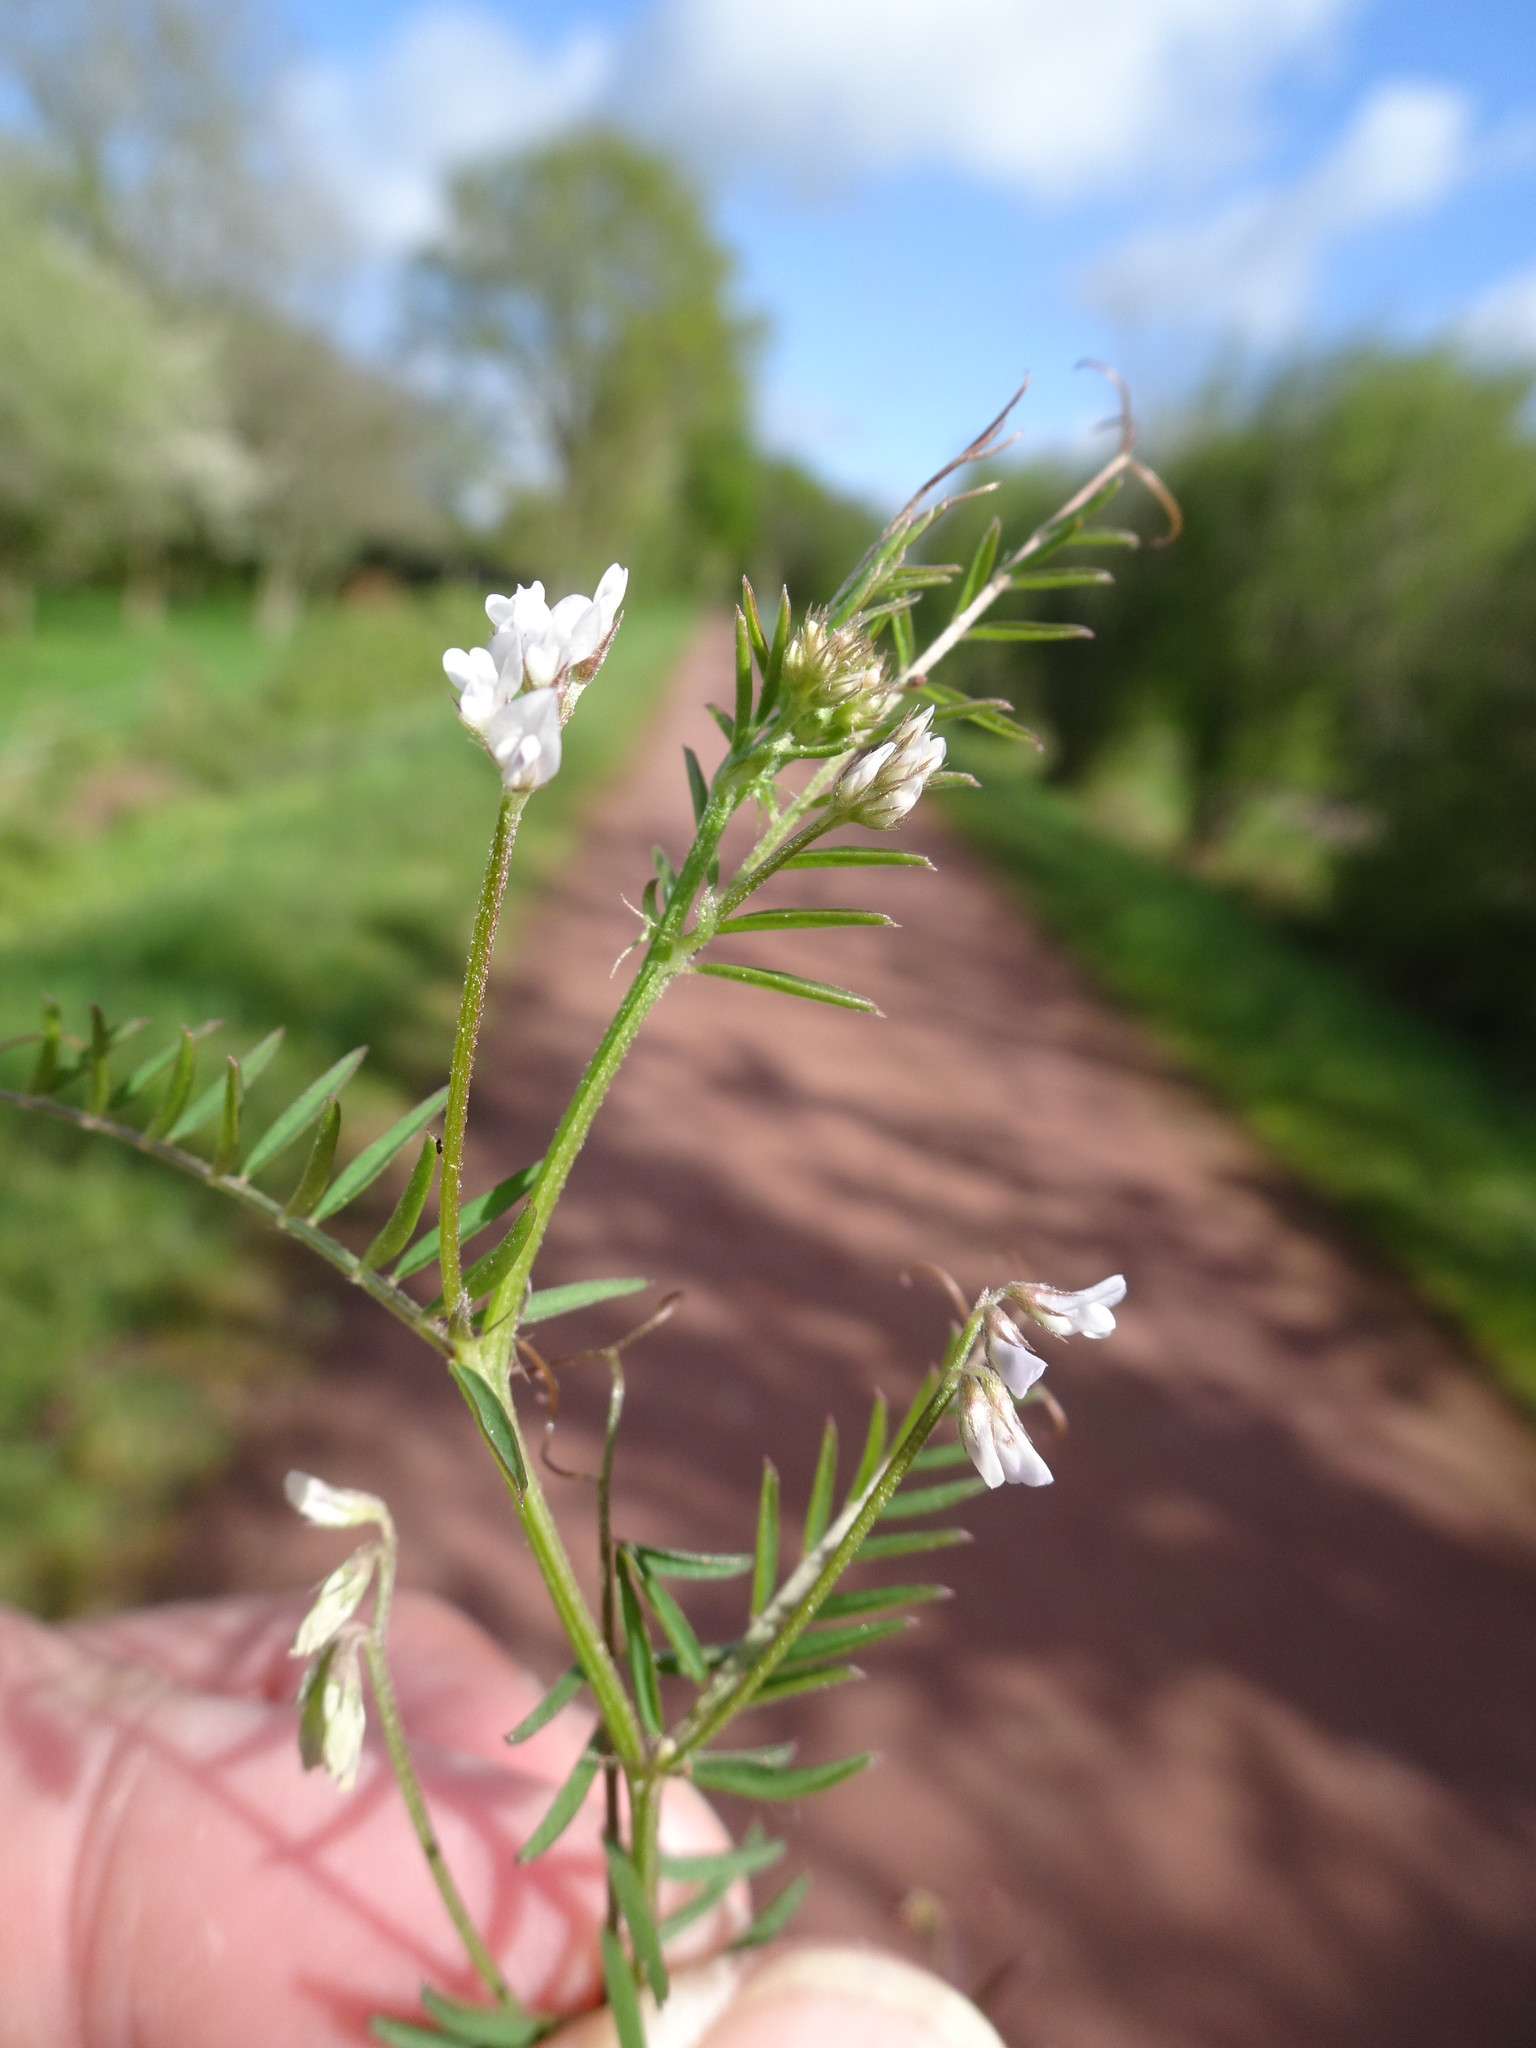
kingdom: Plantae
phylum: Tracheophyta
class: Magnoliopsida
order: Fabales
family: Fabaceae
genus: Vicia
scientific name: Vicia hirsuta
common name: Tiny vetch
